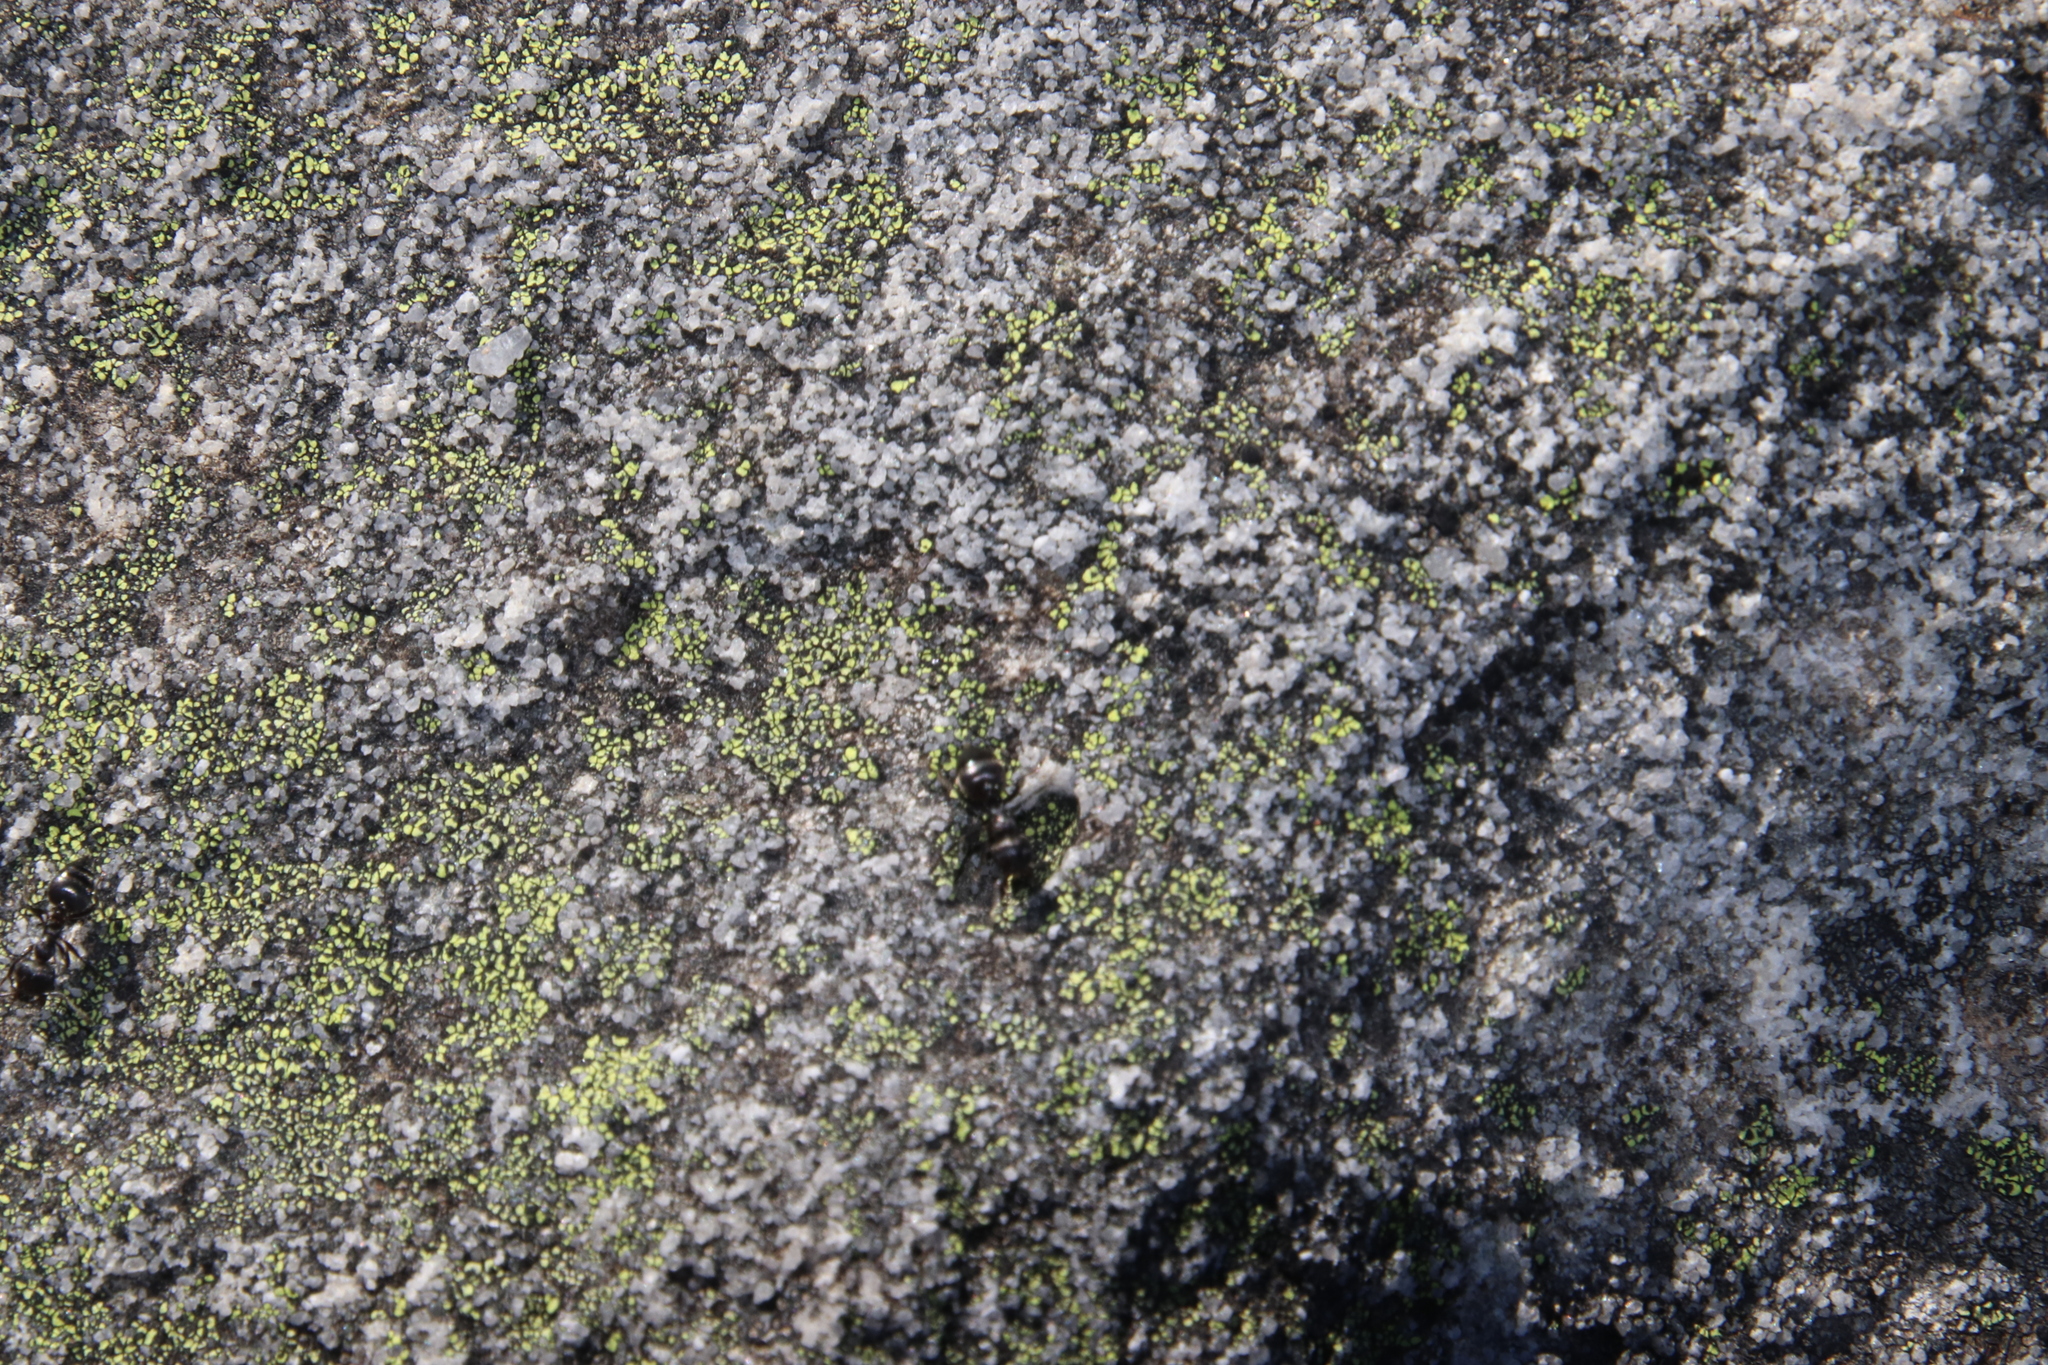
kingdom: Fungi
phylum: Ascomycota
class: Lecanoromycetes
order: Rhizocarpales
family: Rhizocarpaceae
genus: Rhizocarpon
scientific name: Rhizocarpon lecanorinum
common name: Crescent map lichen
